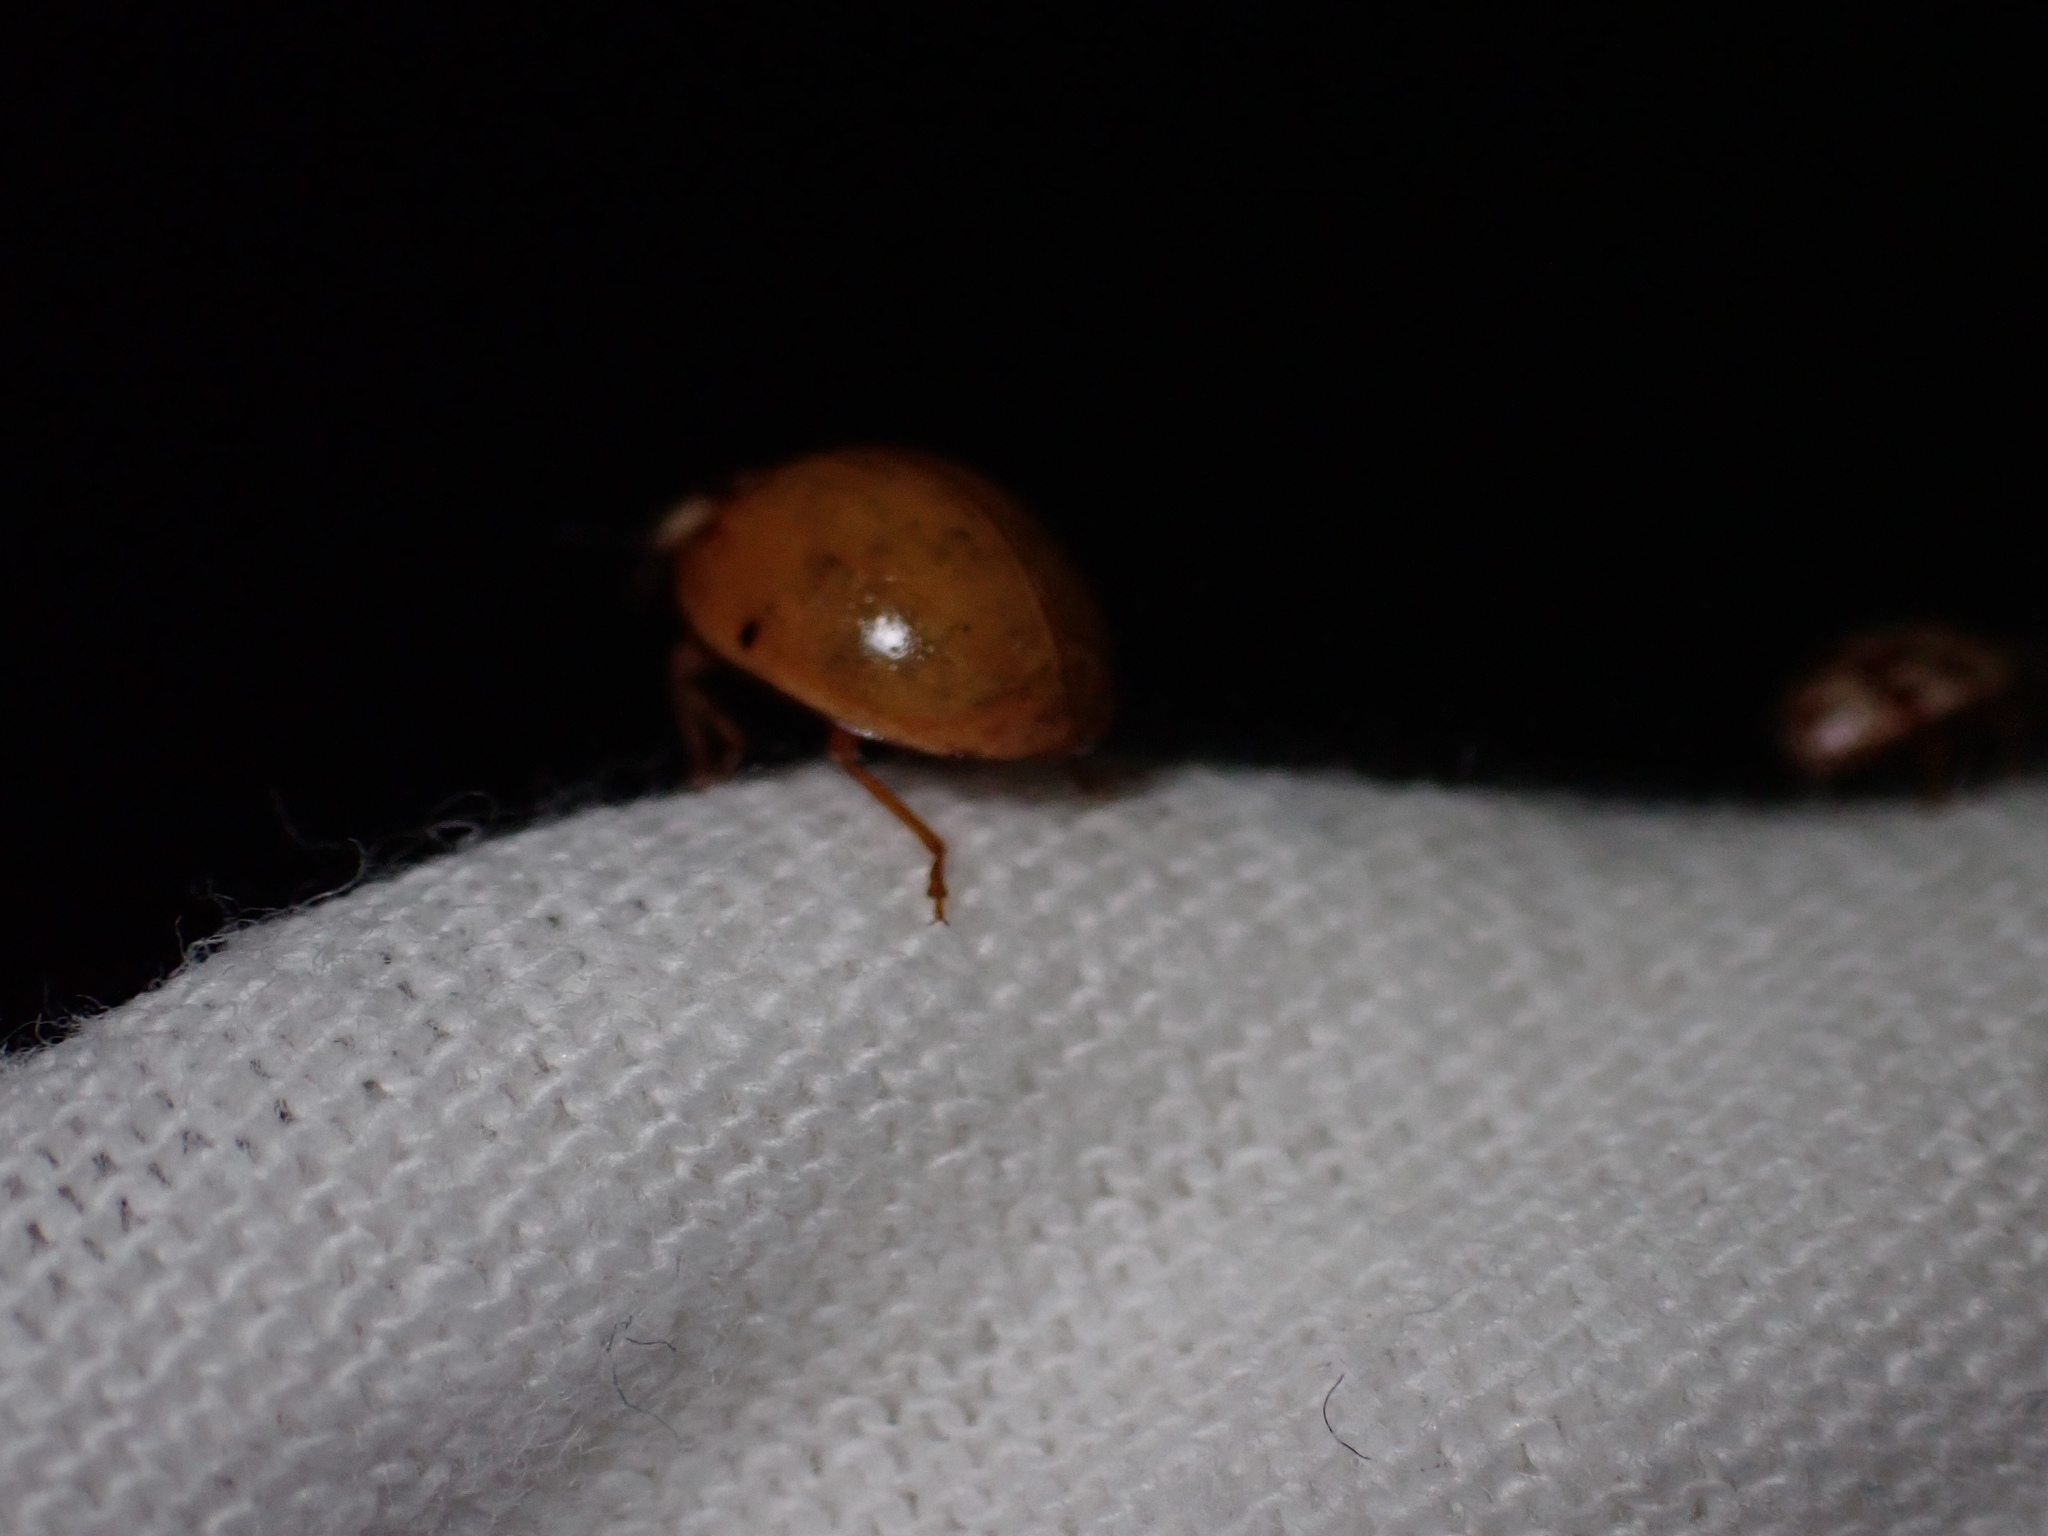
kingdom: Animalia
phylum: Arthropoda
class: Insecta
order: Coleoptera
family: Coccinellidae
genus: Harmonia
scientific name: Harmonia axyridis
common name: Harlequin ladybird
